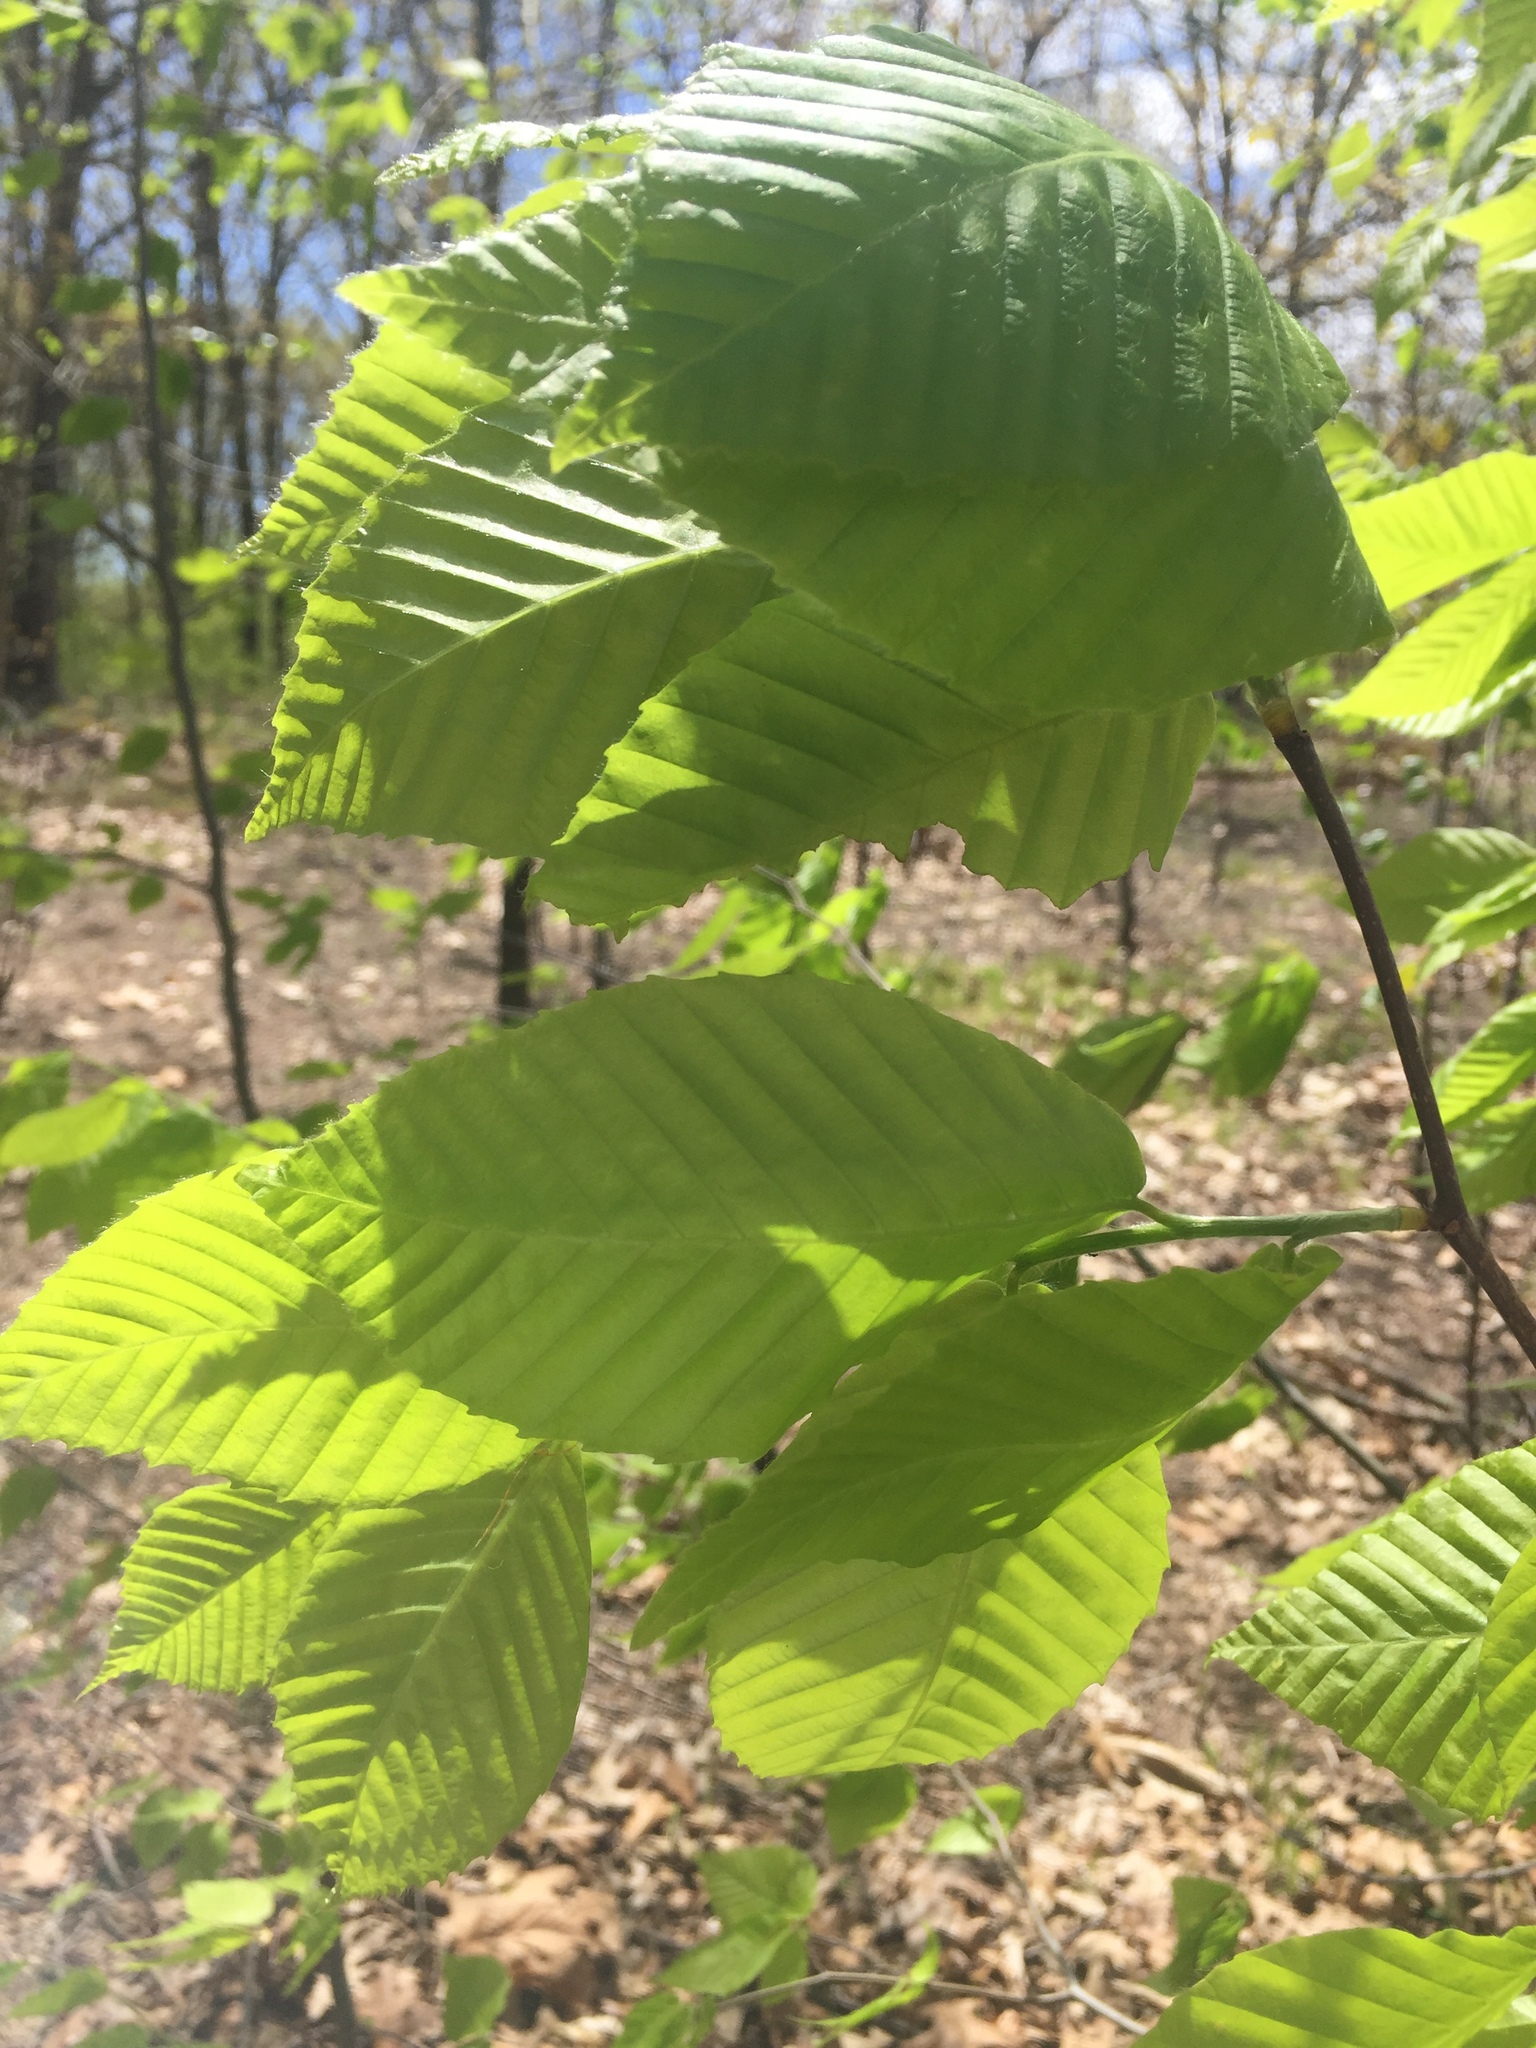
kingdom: Plantae
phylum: Tracheophyta
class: Magnoliopsida
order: Fagales
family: Fagaceae
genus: Fagus
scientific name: Fagus grandifolia
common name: American beech
